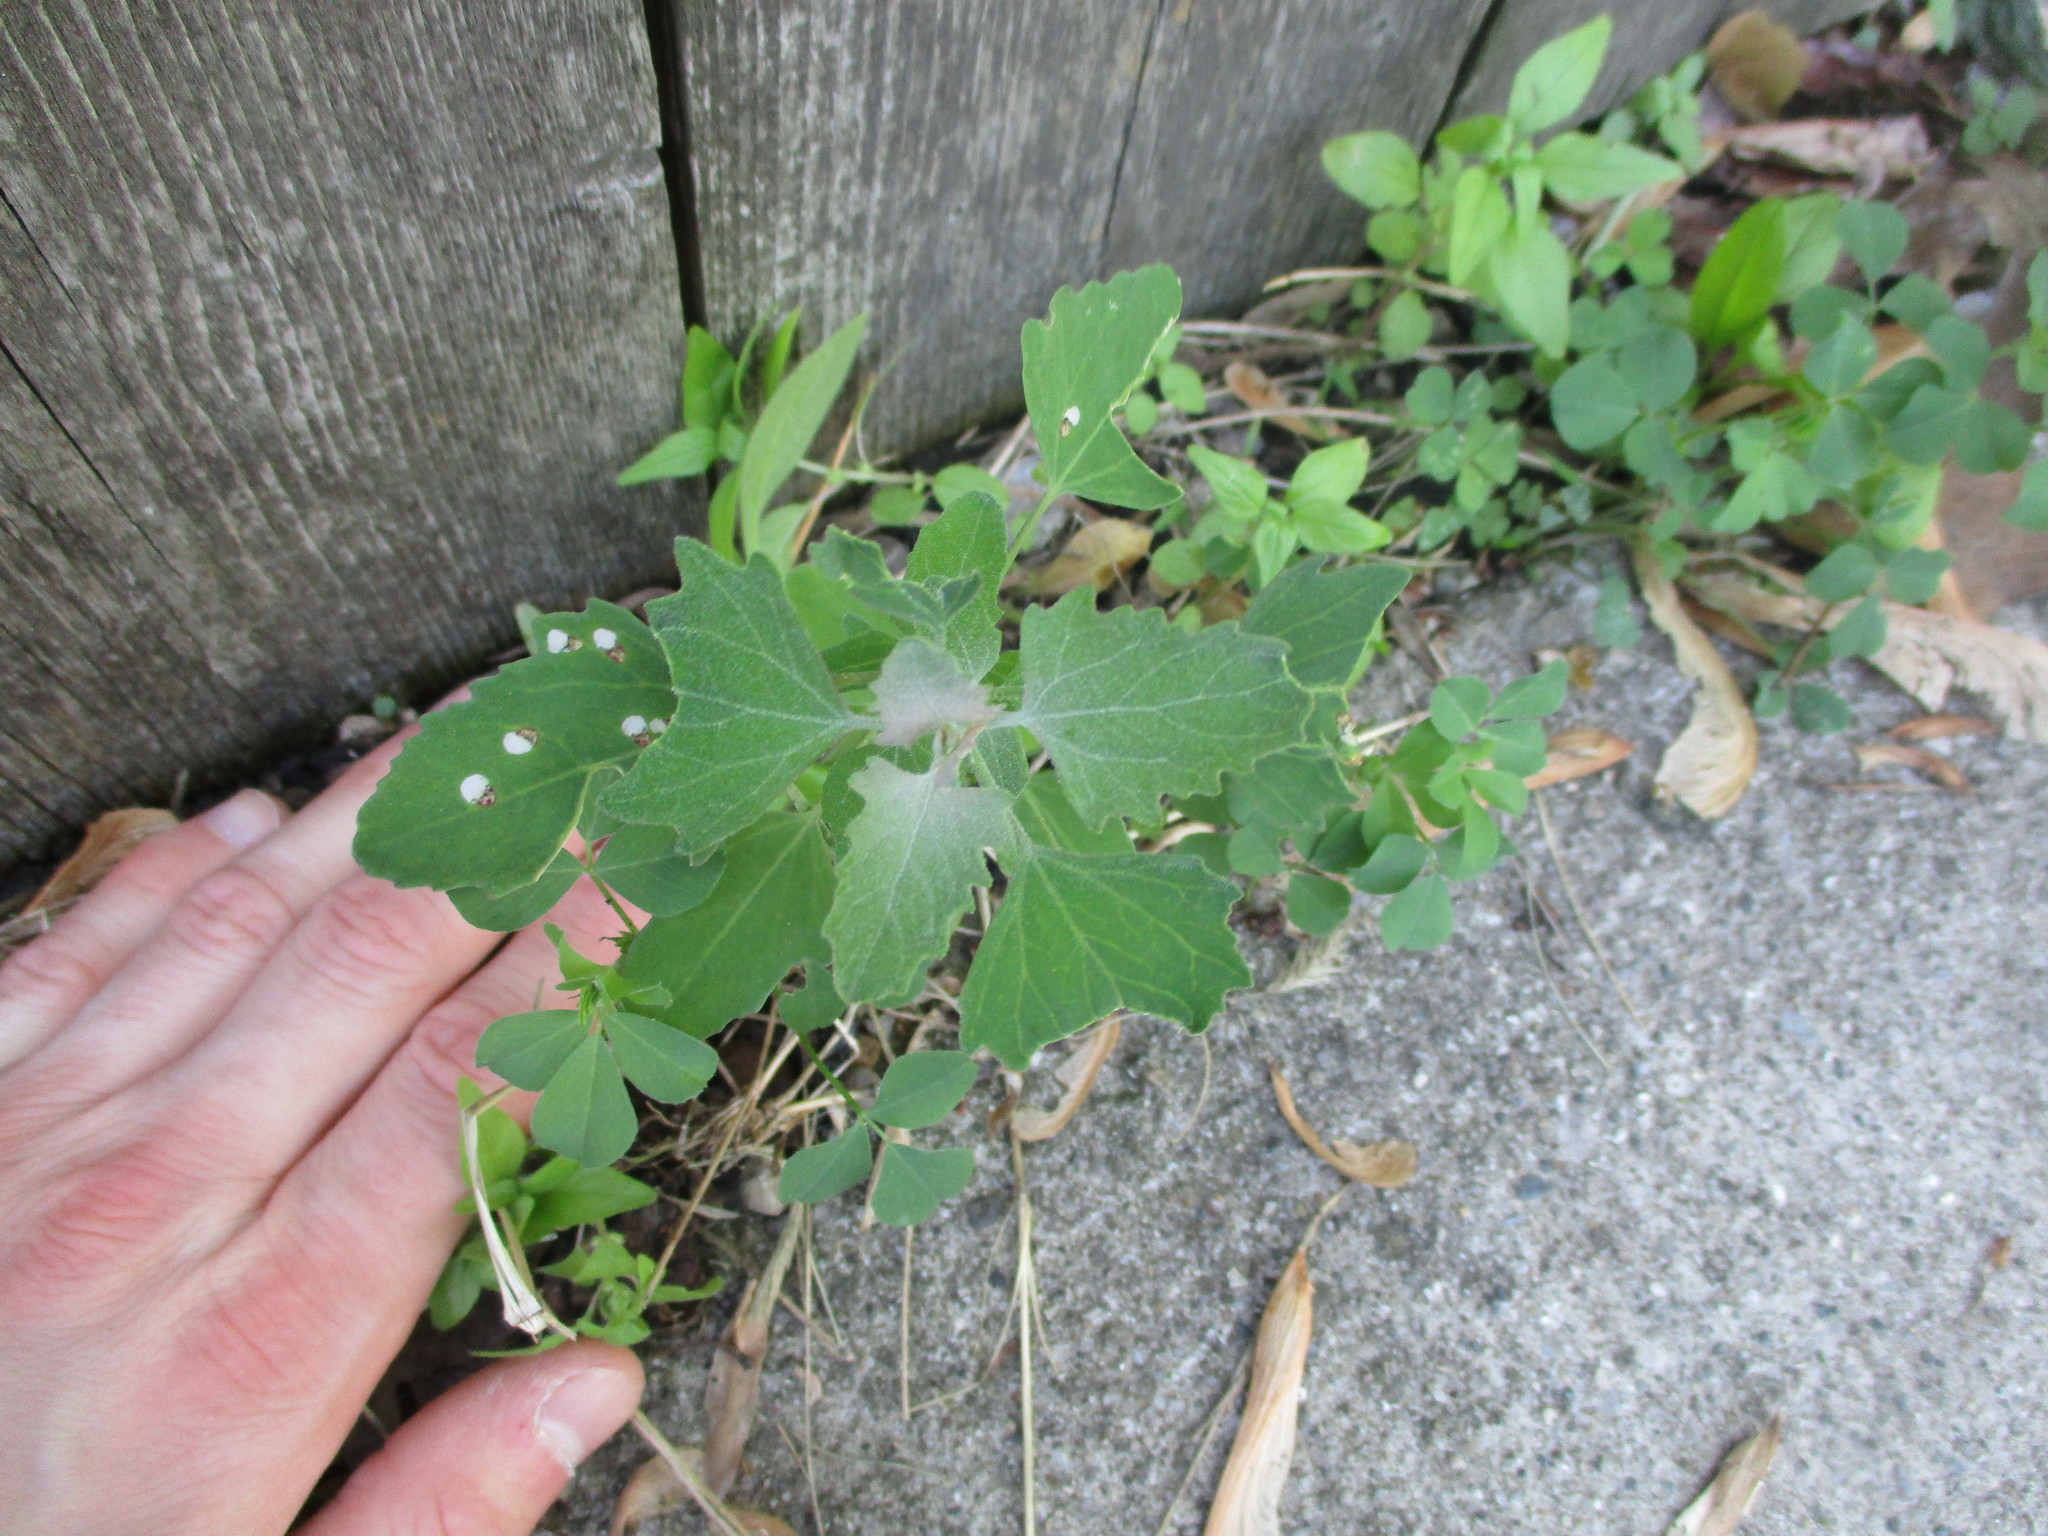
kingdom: Plantae
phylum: Tracheophyta
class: Magnoliopsida
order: Caryophyllales
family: Amaranthaceae
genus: Chenopodium
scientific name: Chenopodium album
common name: Fat-hen
